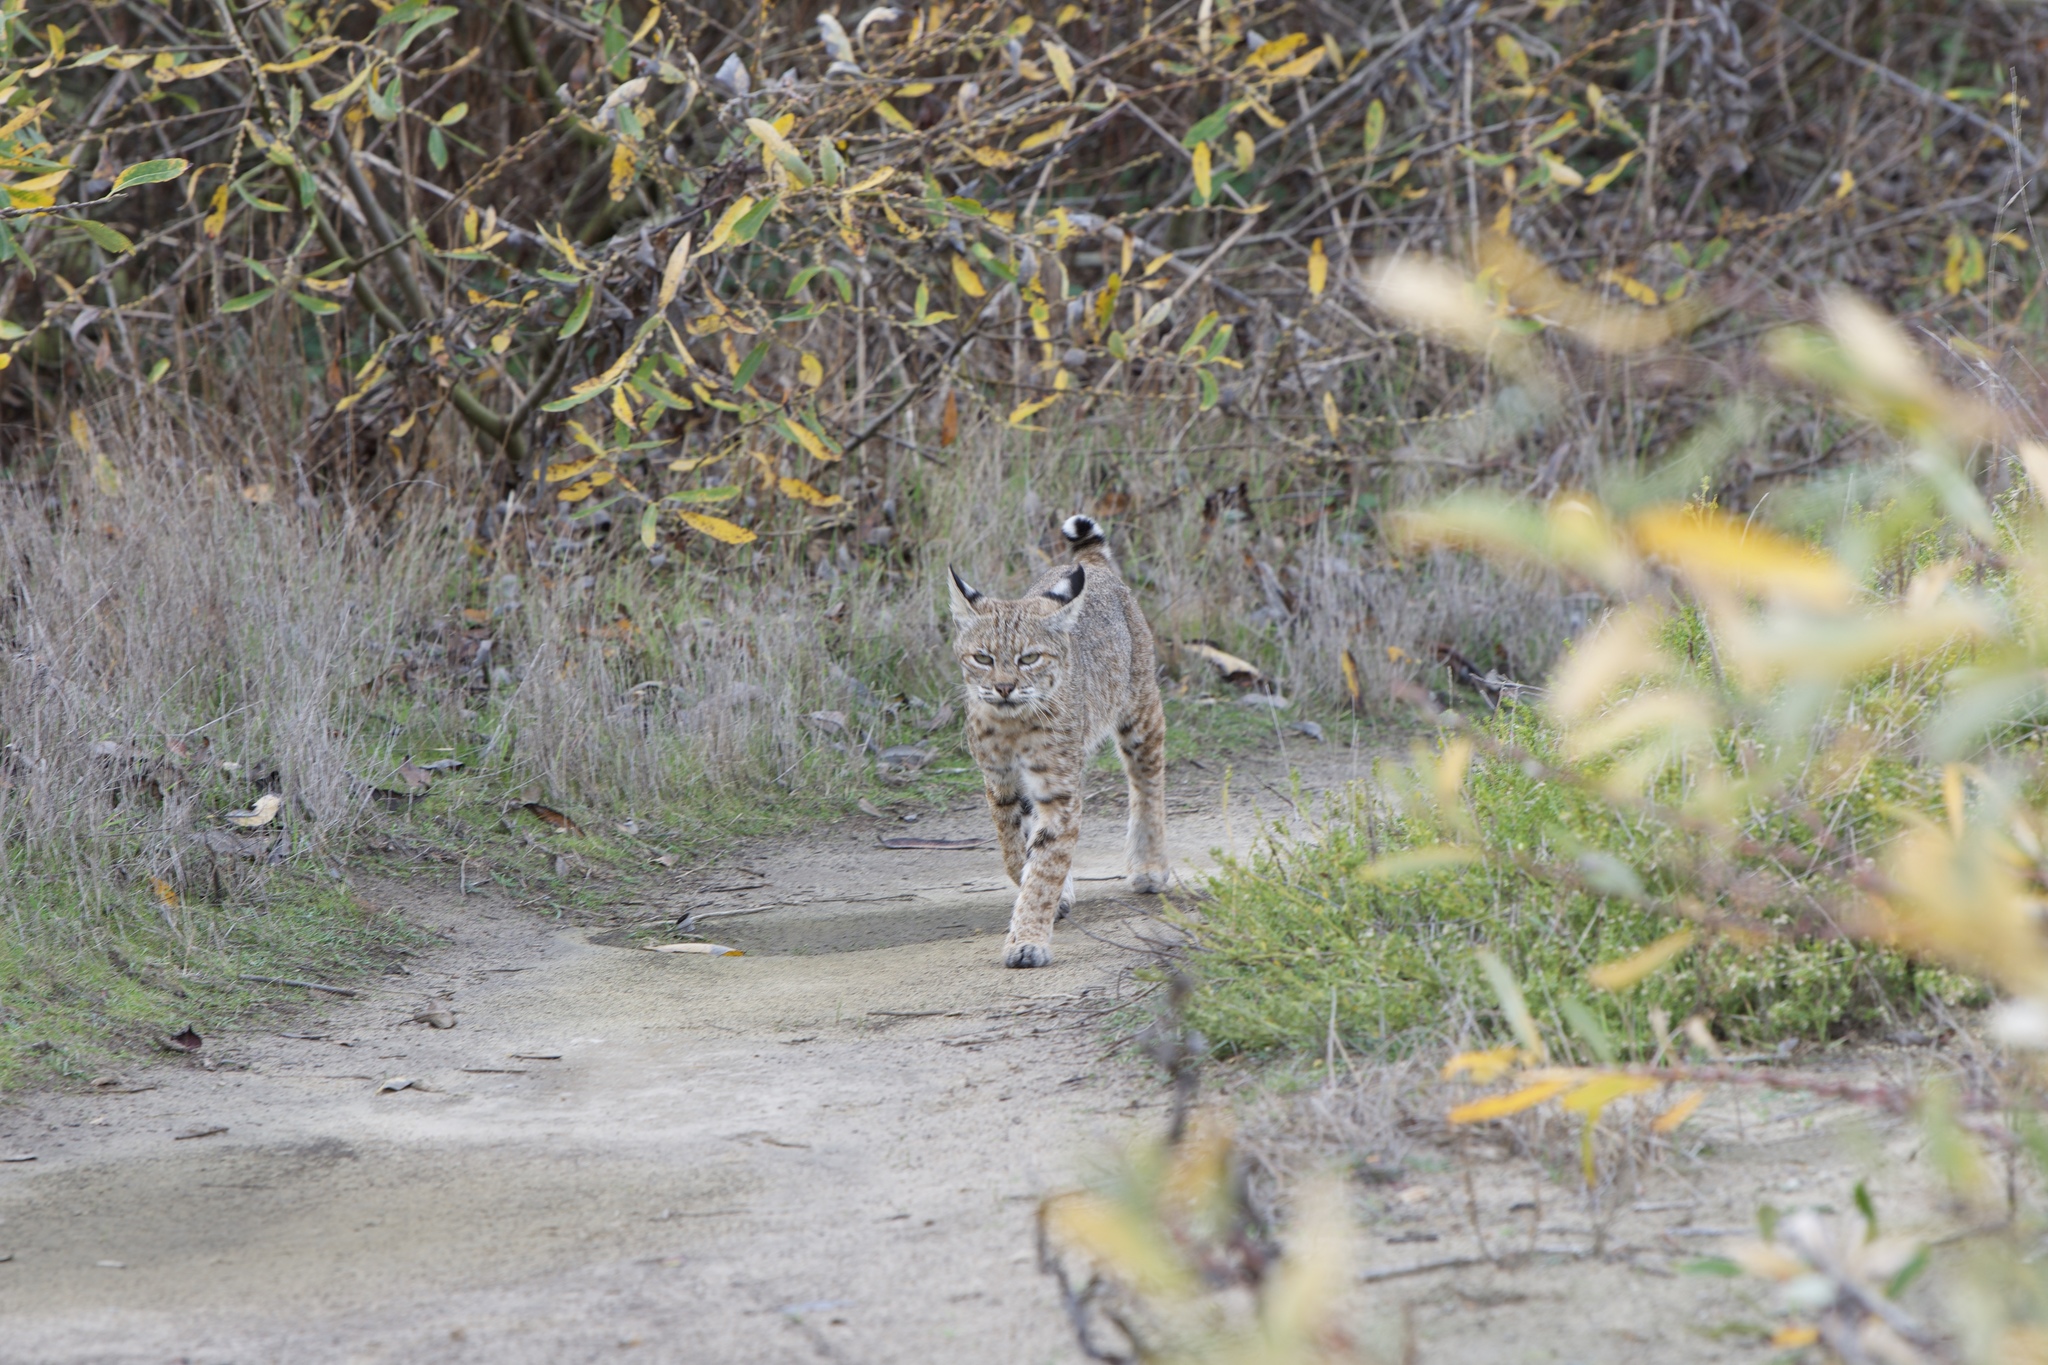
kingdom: Animalia
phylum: Chordata
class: Mammalia
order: Carnivora
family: Felidae
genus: Lynx
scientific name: Lynx rufus
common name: Bobcat
